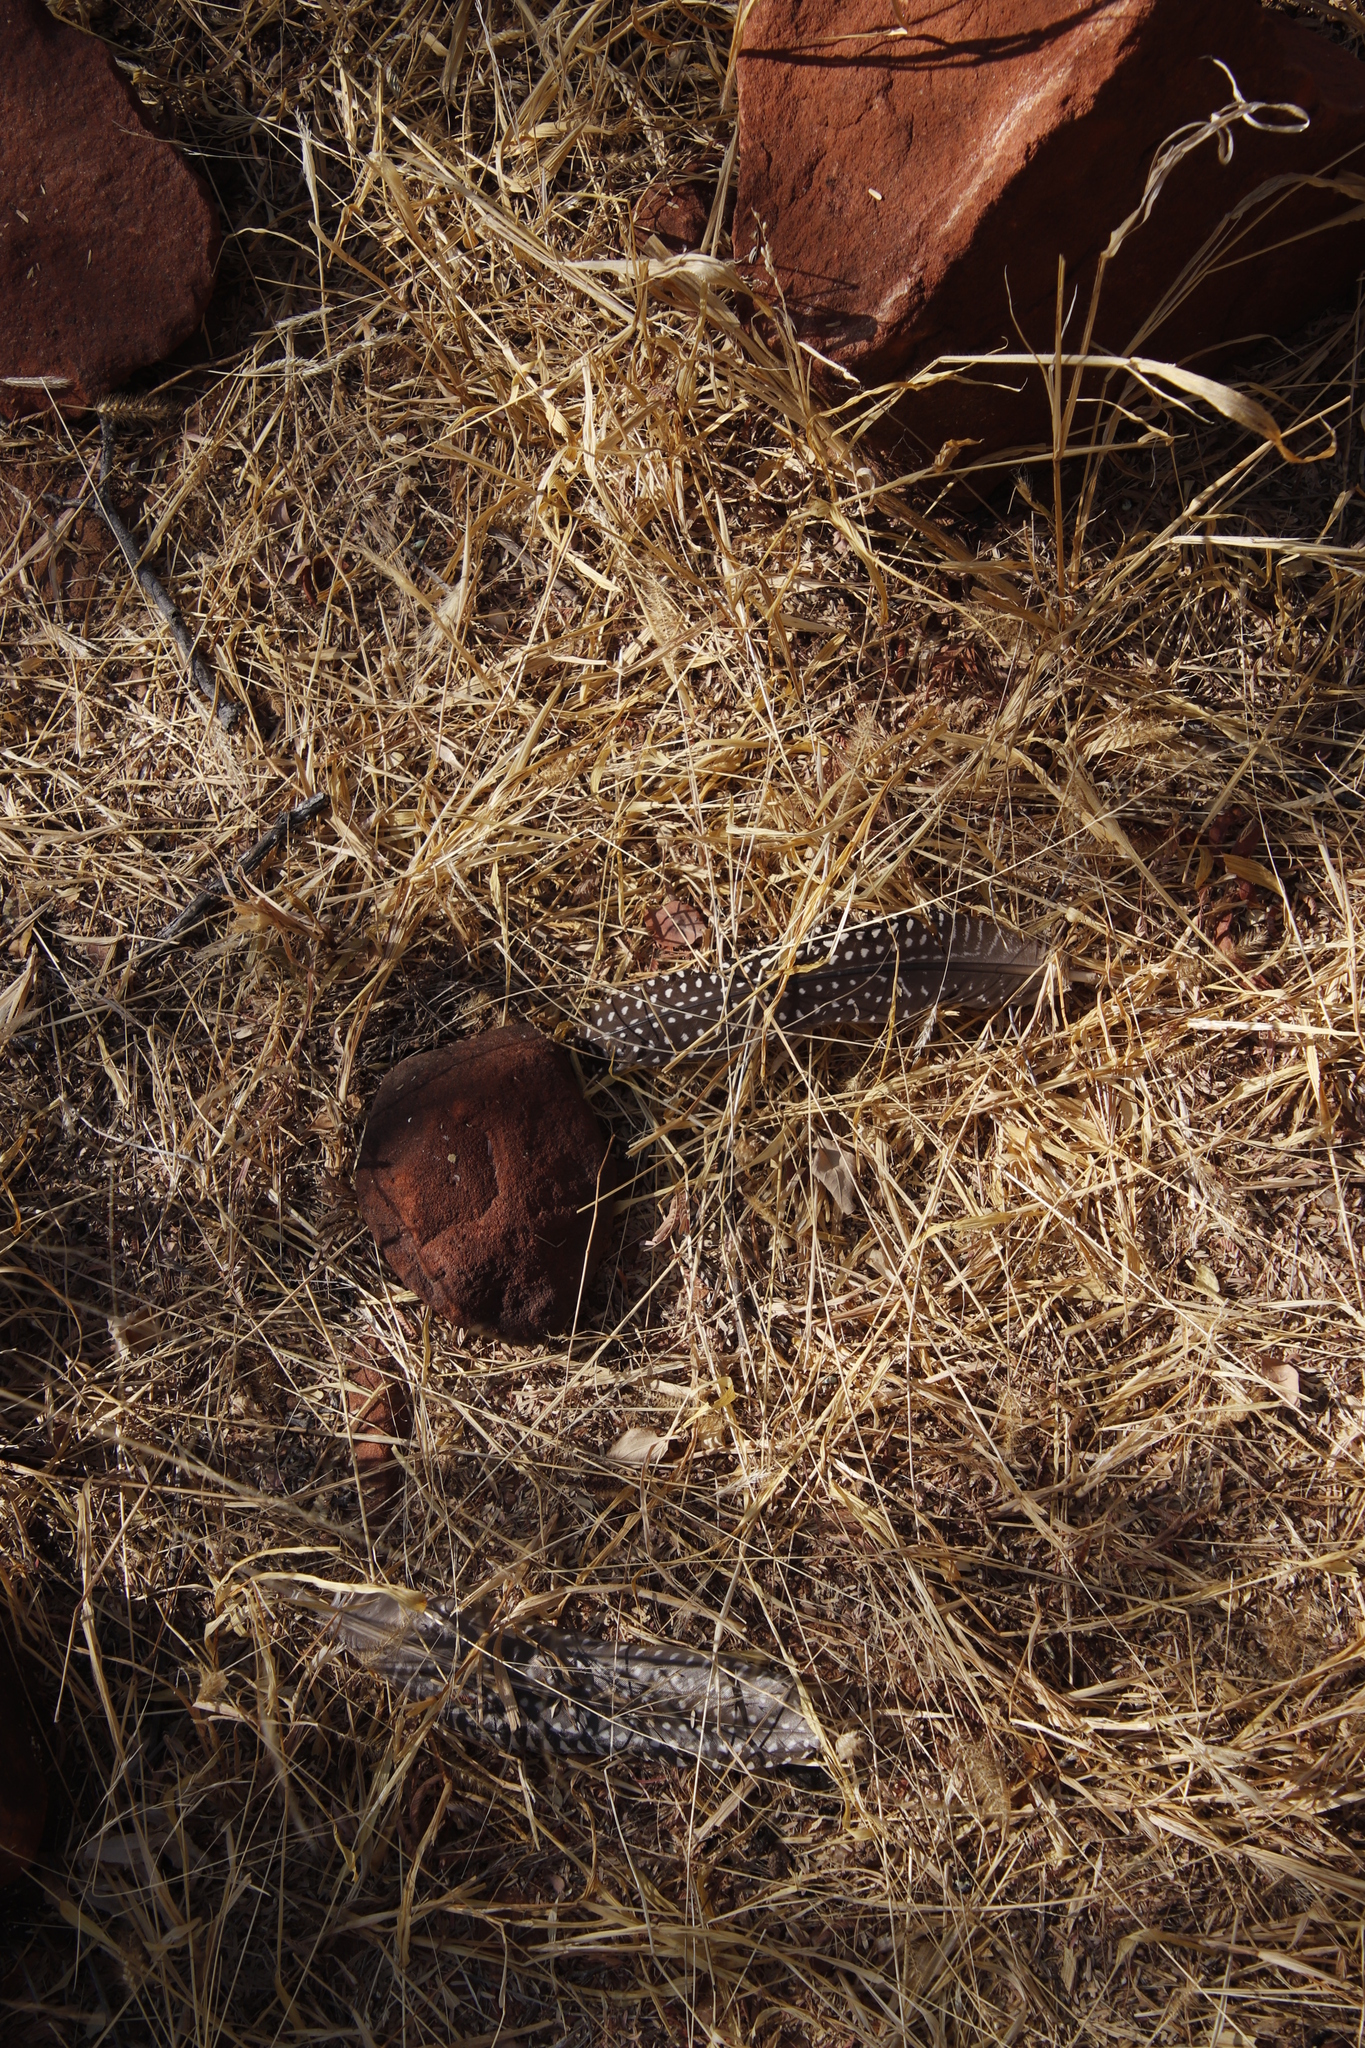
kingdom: Animalia
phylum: Chordata
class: Aves
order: Galliformes
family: Numididae
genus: Numida
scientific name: Numida meleagris
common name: Helmeted guineafowl
